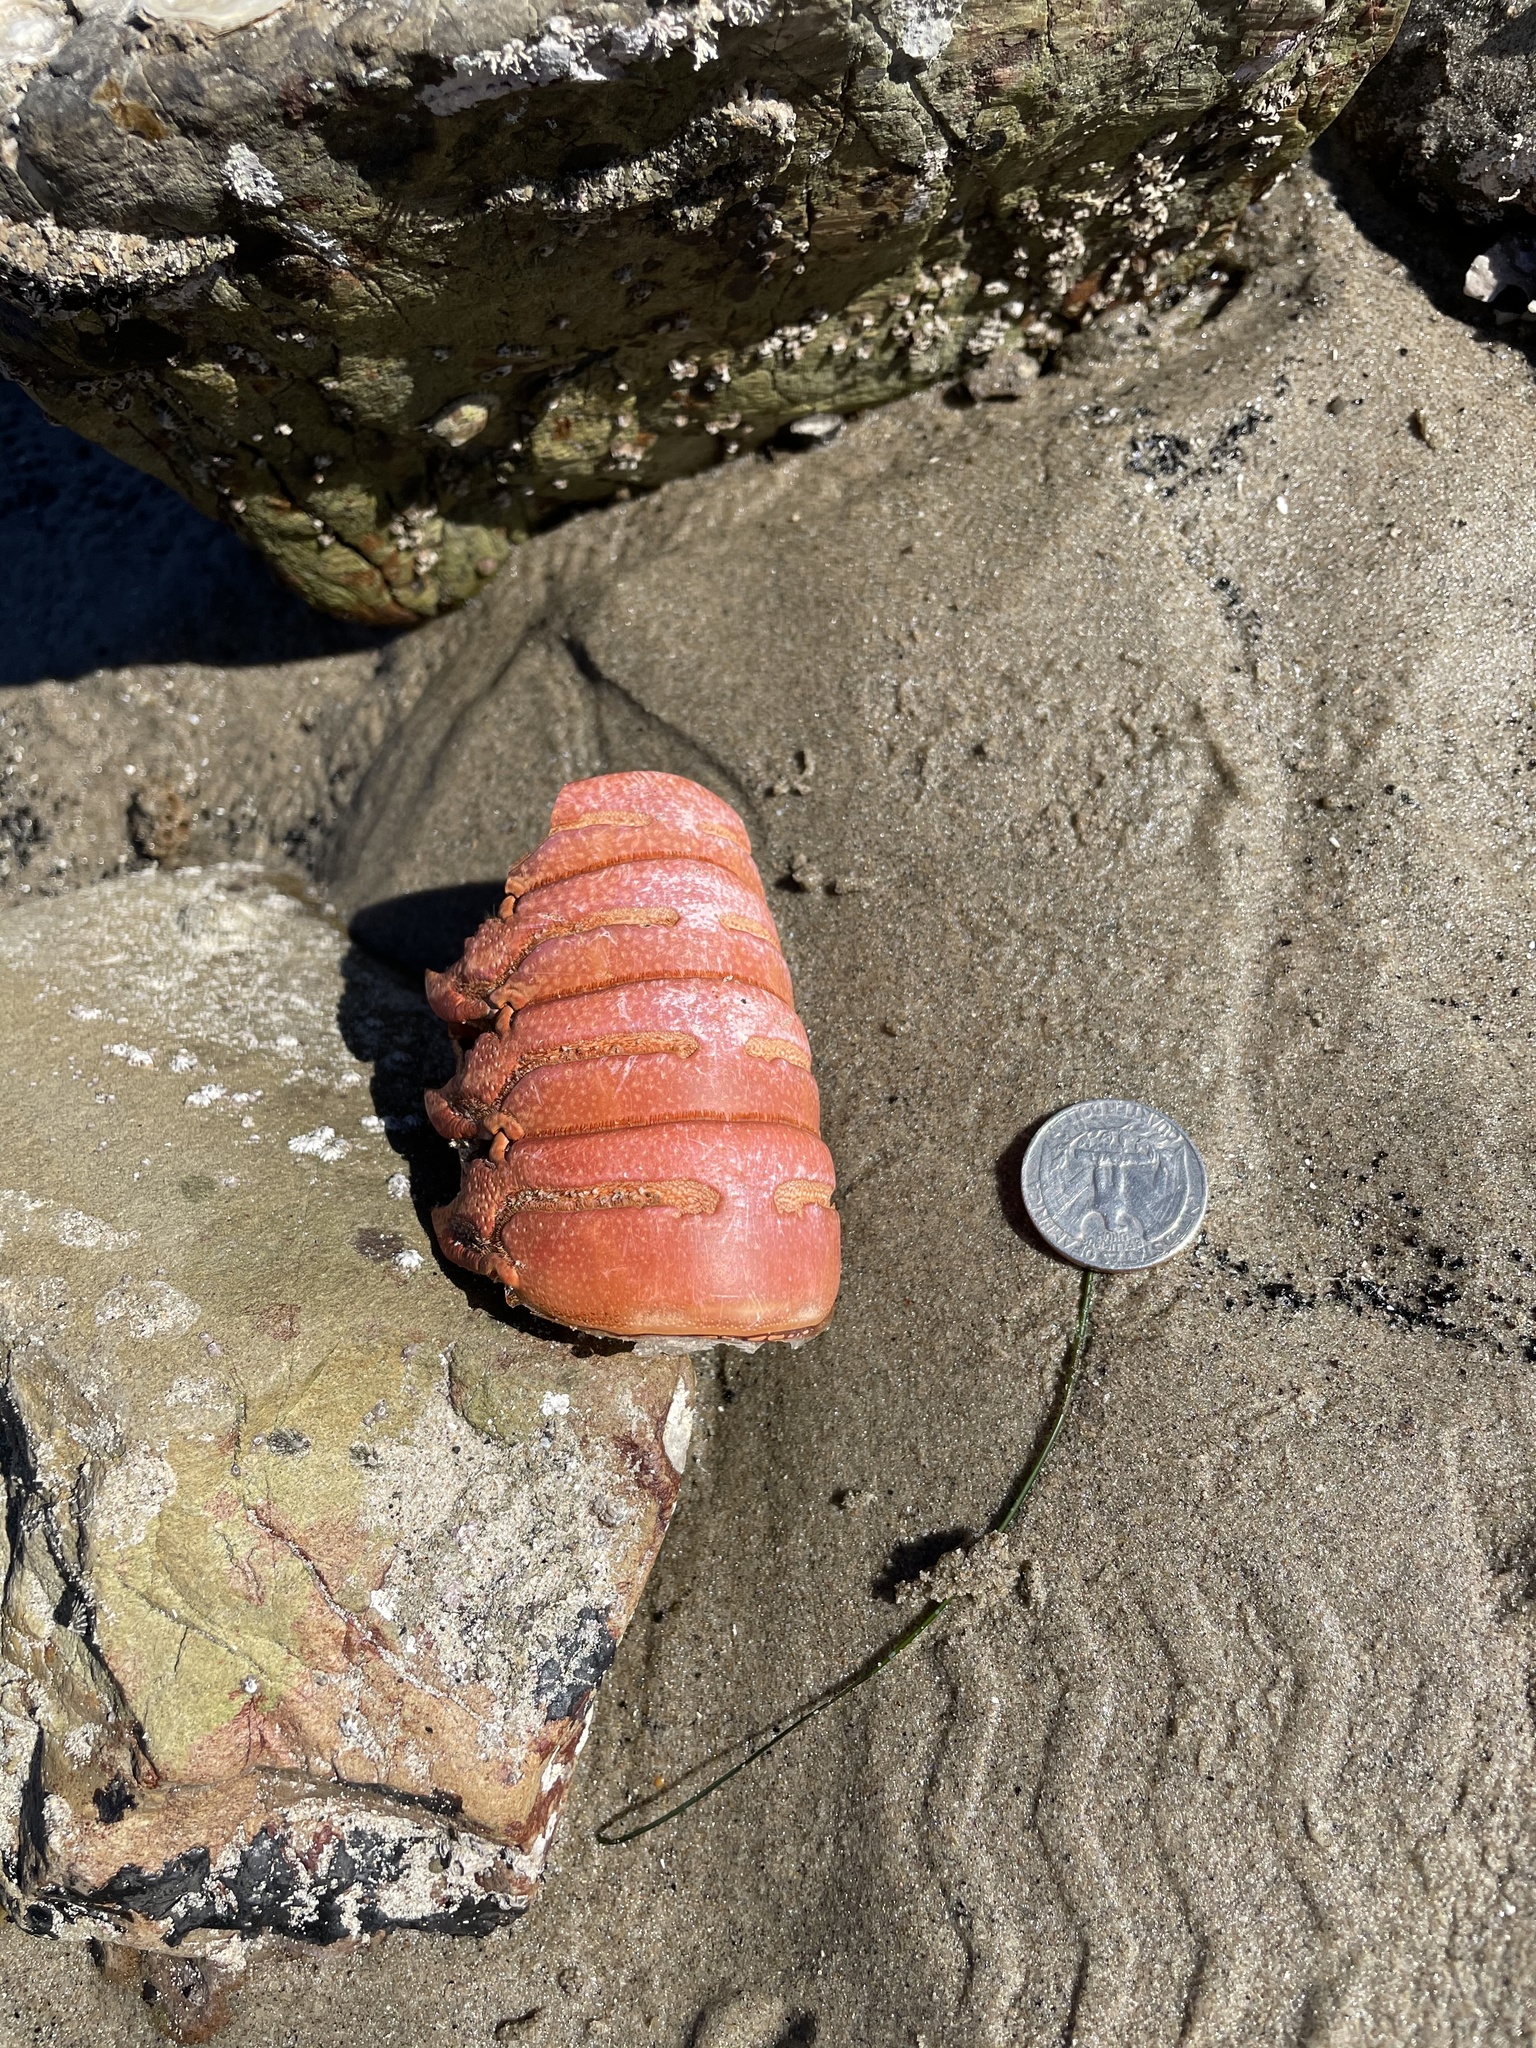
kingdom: Animalia
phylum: Arthropoda
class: Malacostraca
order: Decapoda
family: Palinuridae
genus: Panulirus
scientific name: Panulirus interruptus
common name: California spiny lobster
